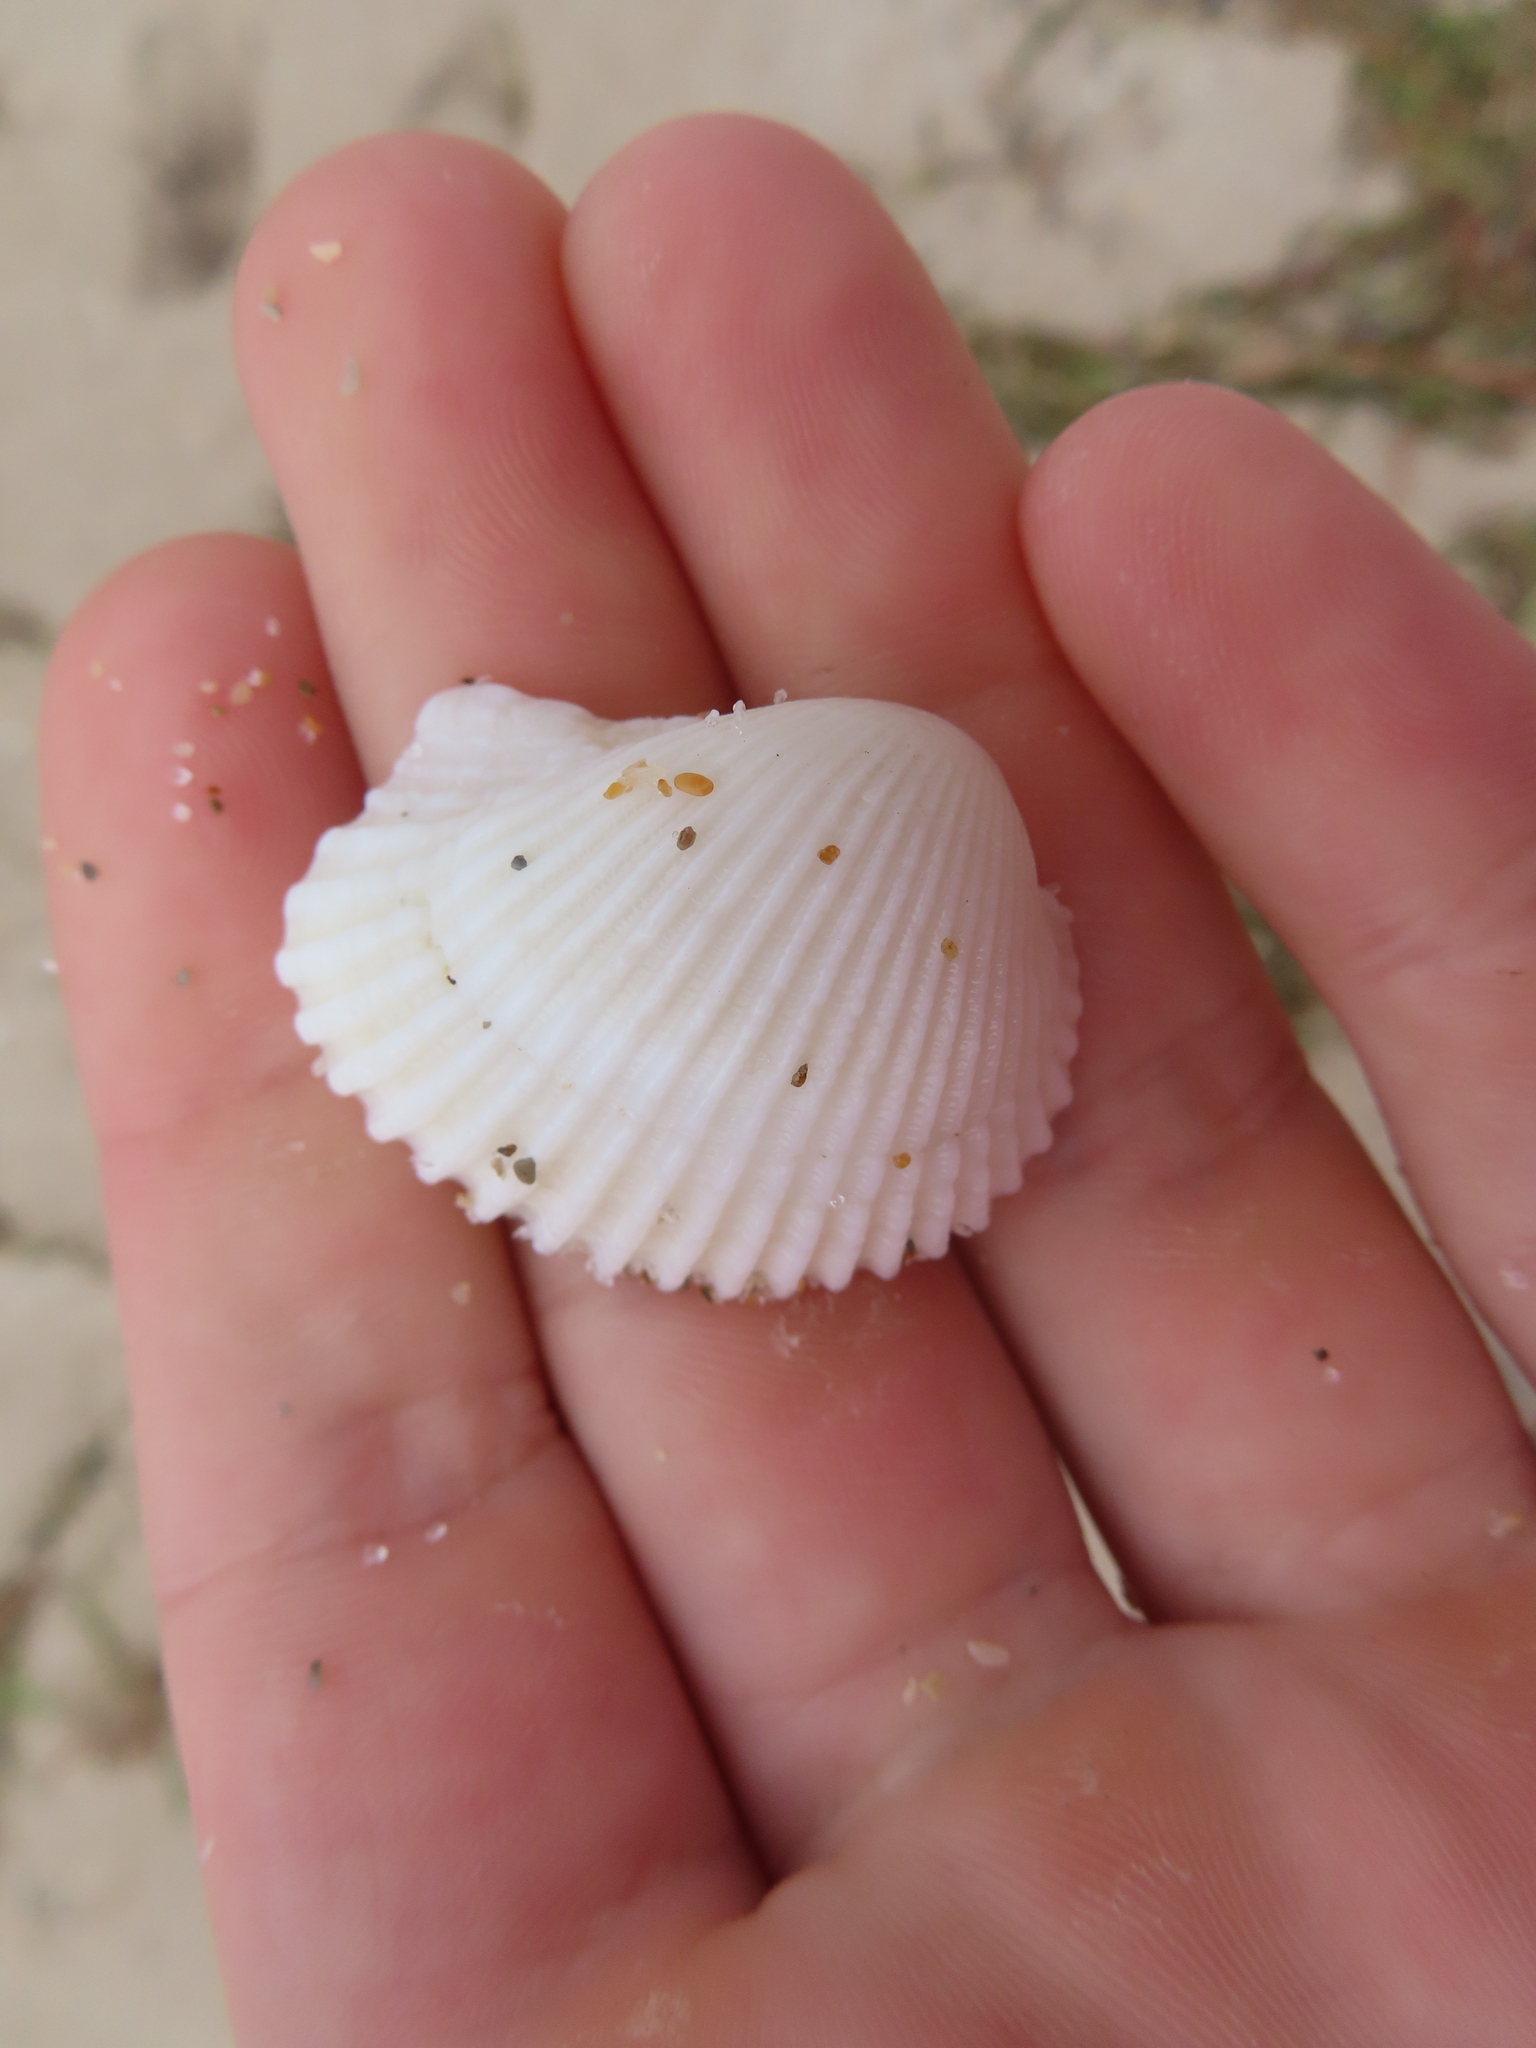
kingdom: Animalia
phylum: Mollusca
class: Bivalvia
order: Arcida
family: Arcidae
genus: Anadara
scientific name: Anadara notabilis
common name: Eared ark
